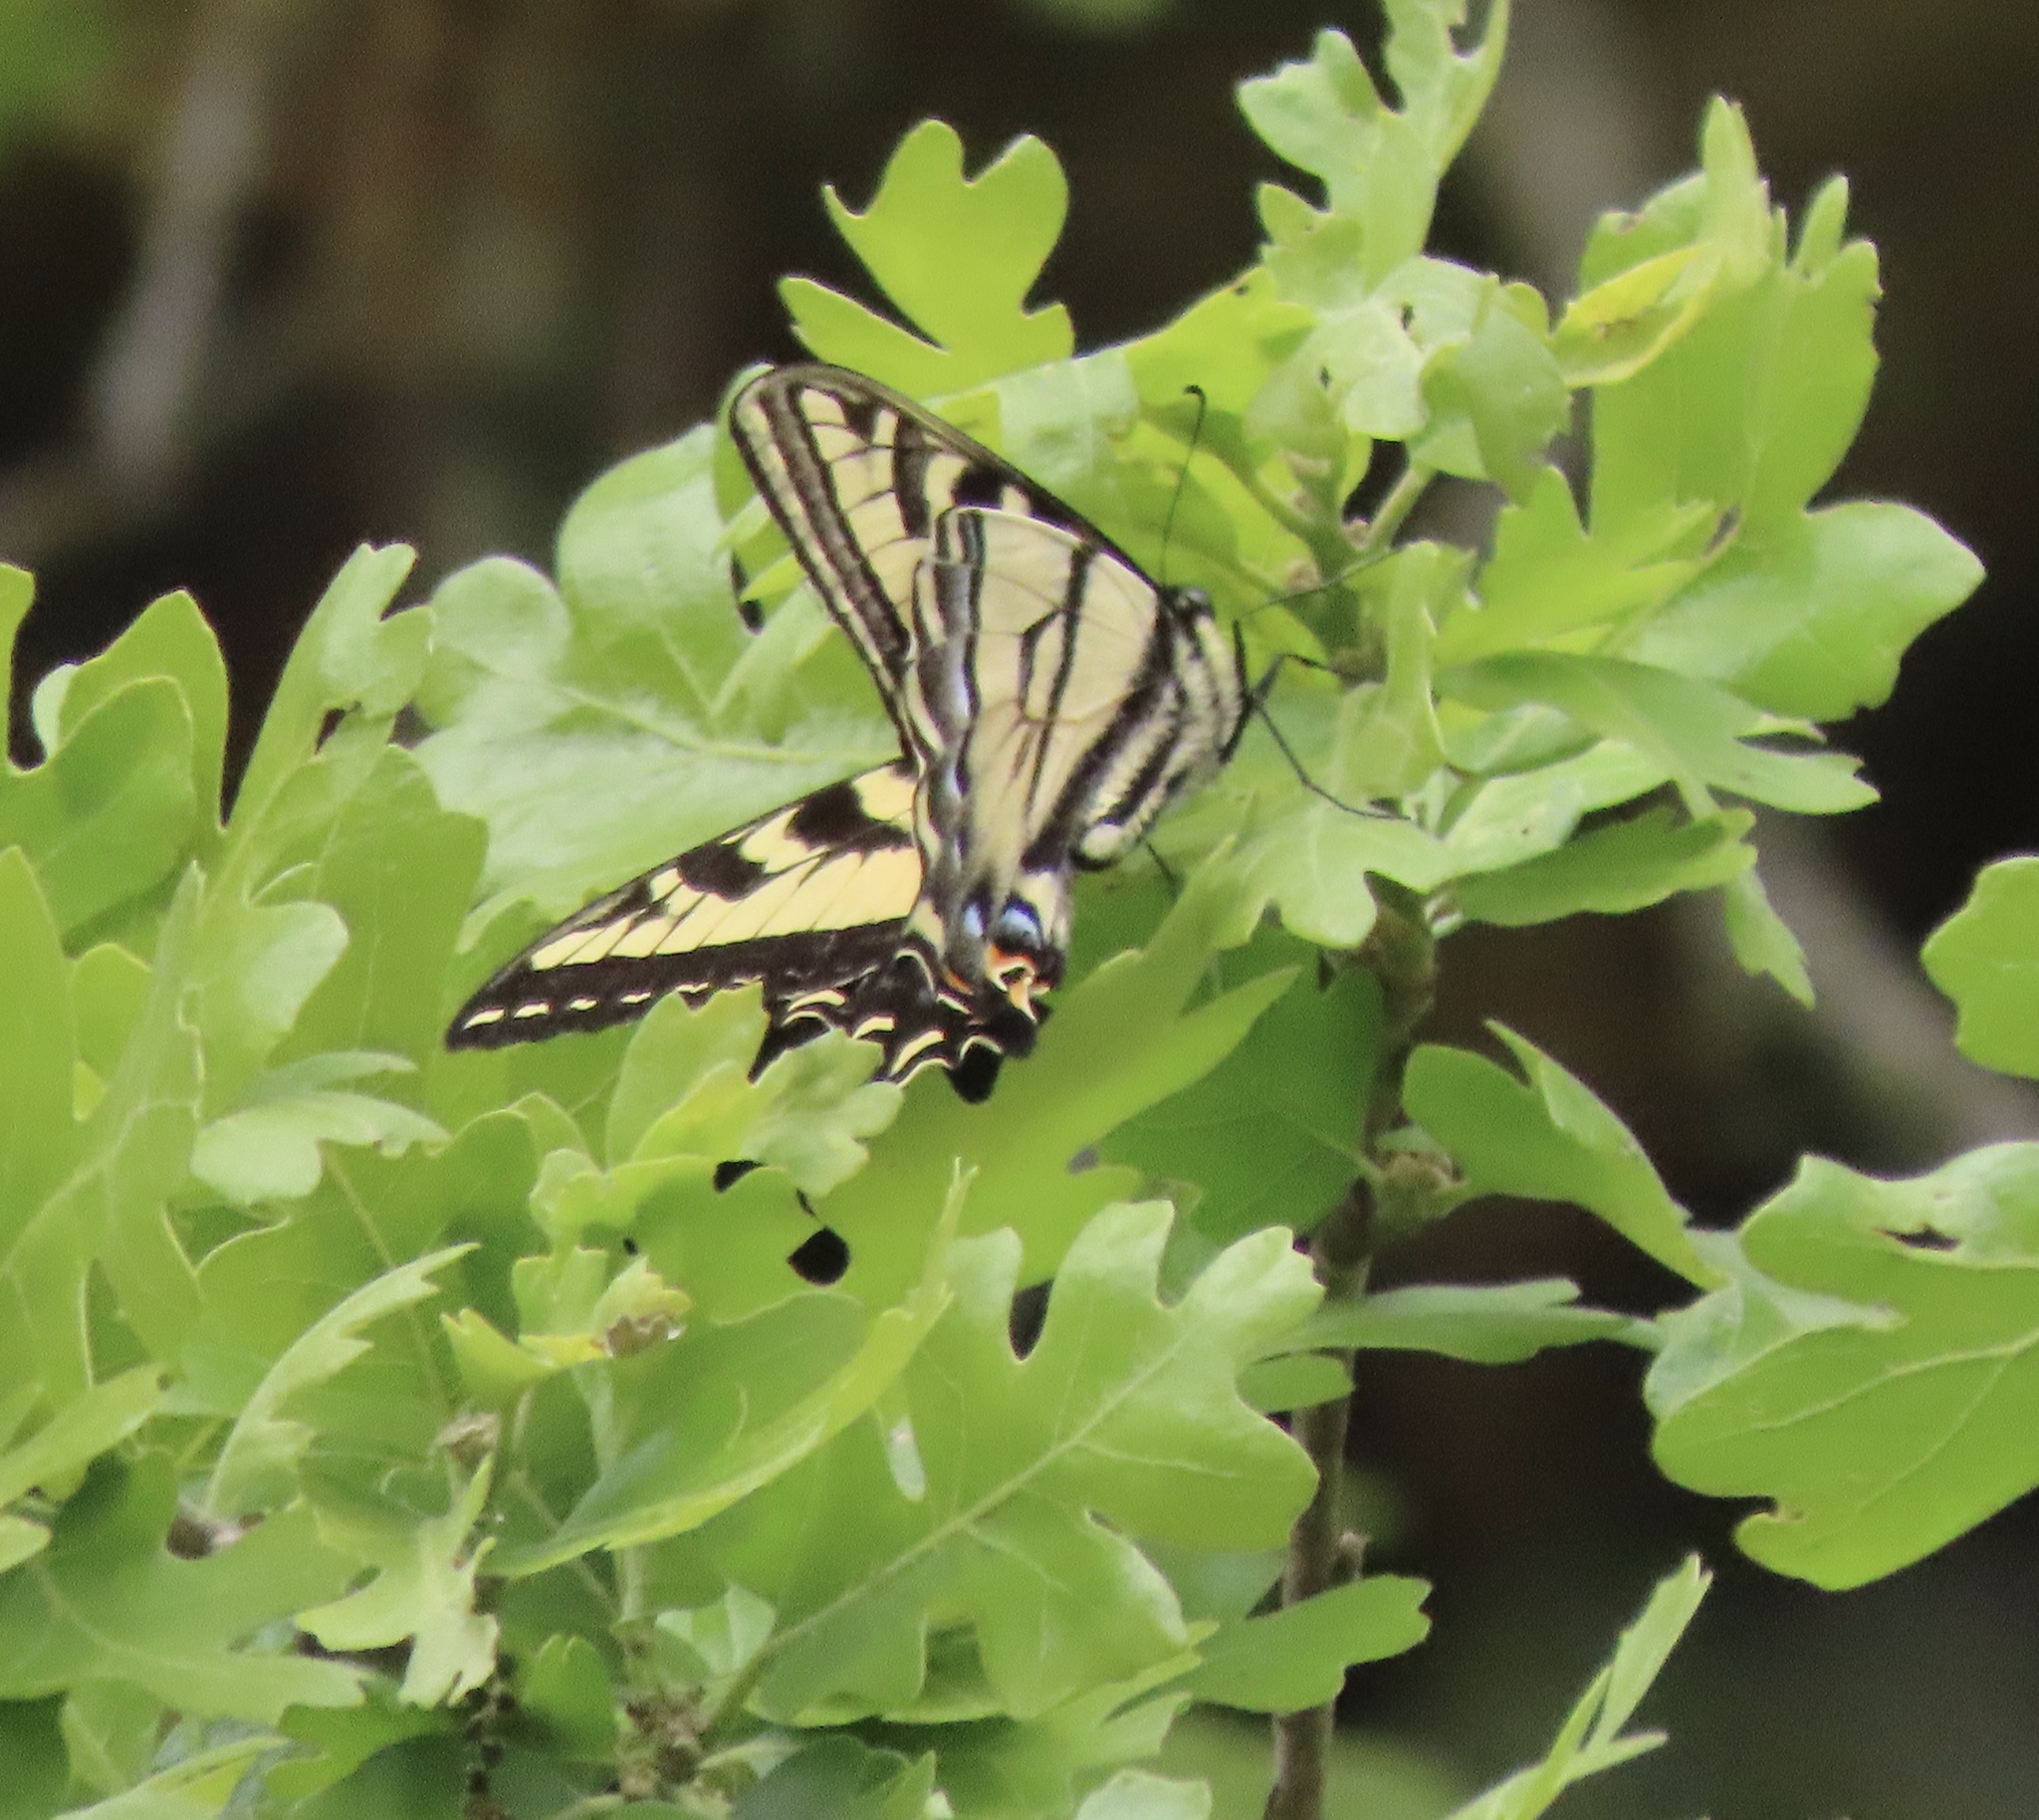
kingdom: Animalia
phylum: Arthropoda
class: Insecta
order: Lepidoptera
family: Papilionidae
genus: Papilio
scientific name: Papilio rutulus
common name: Western tiger swallowtail
